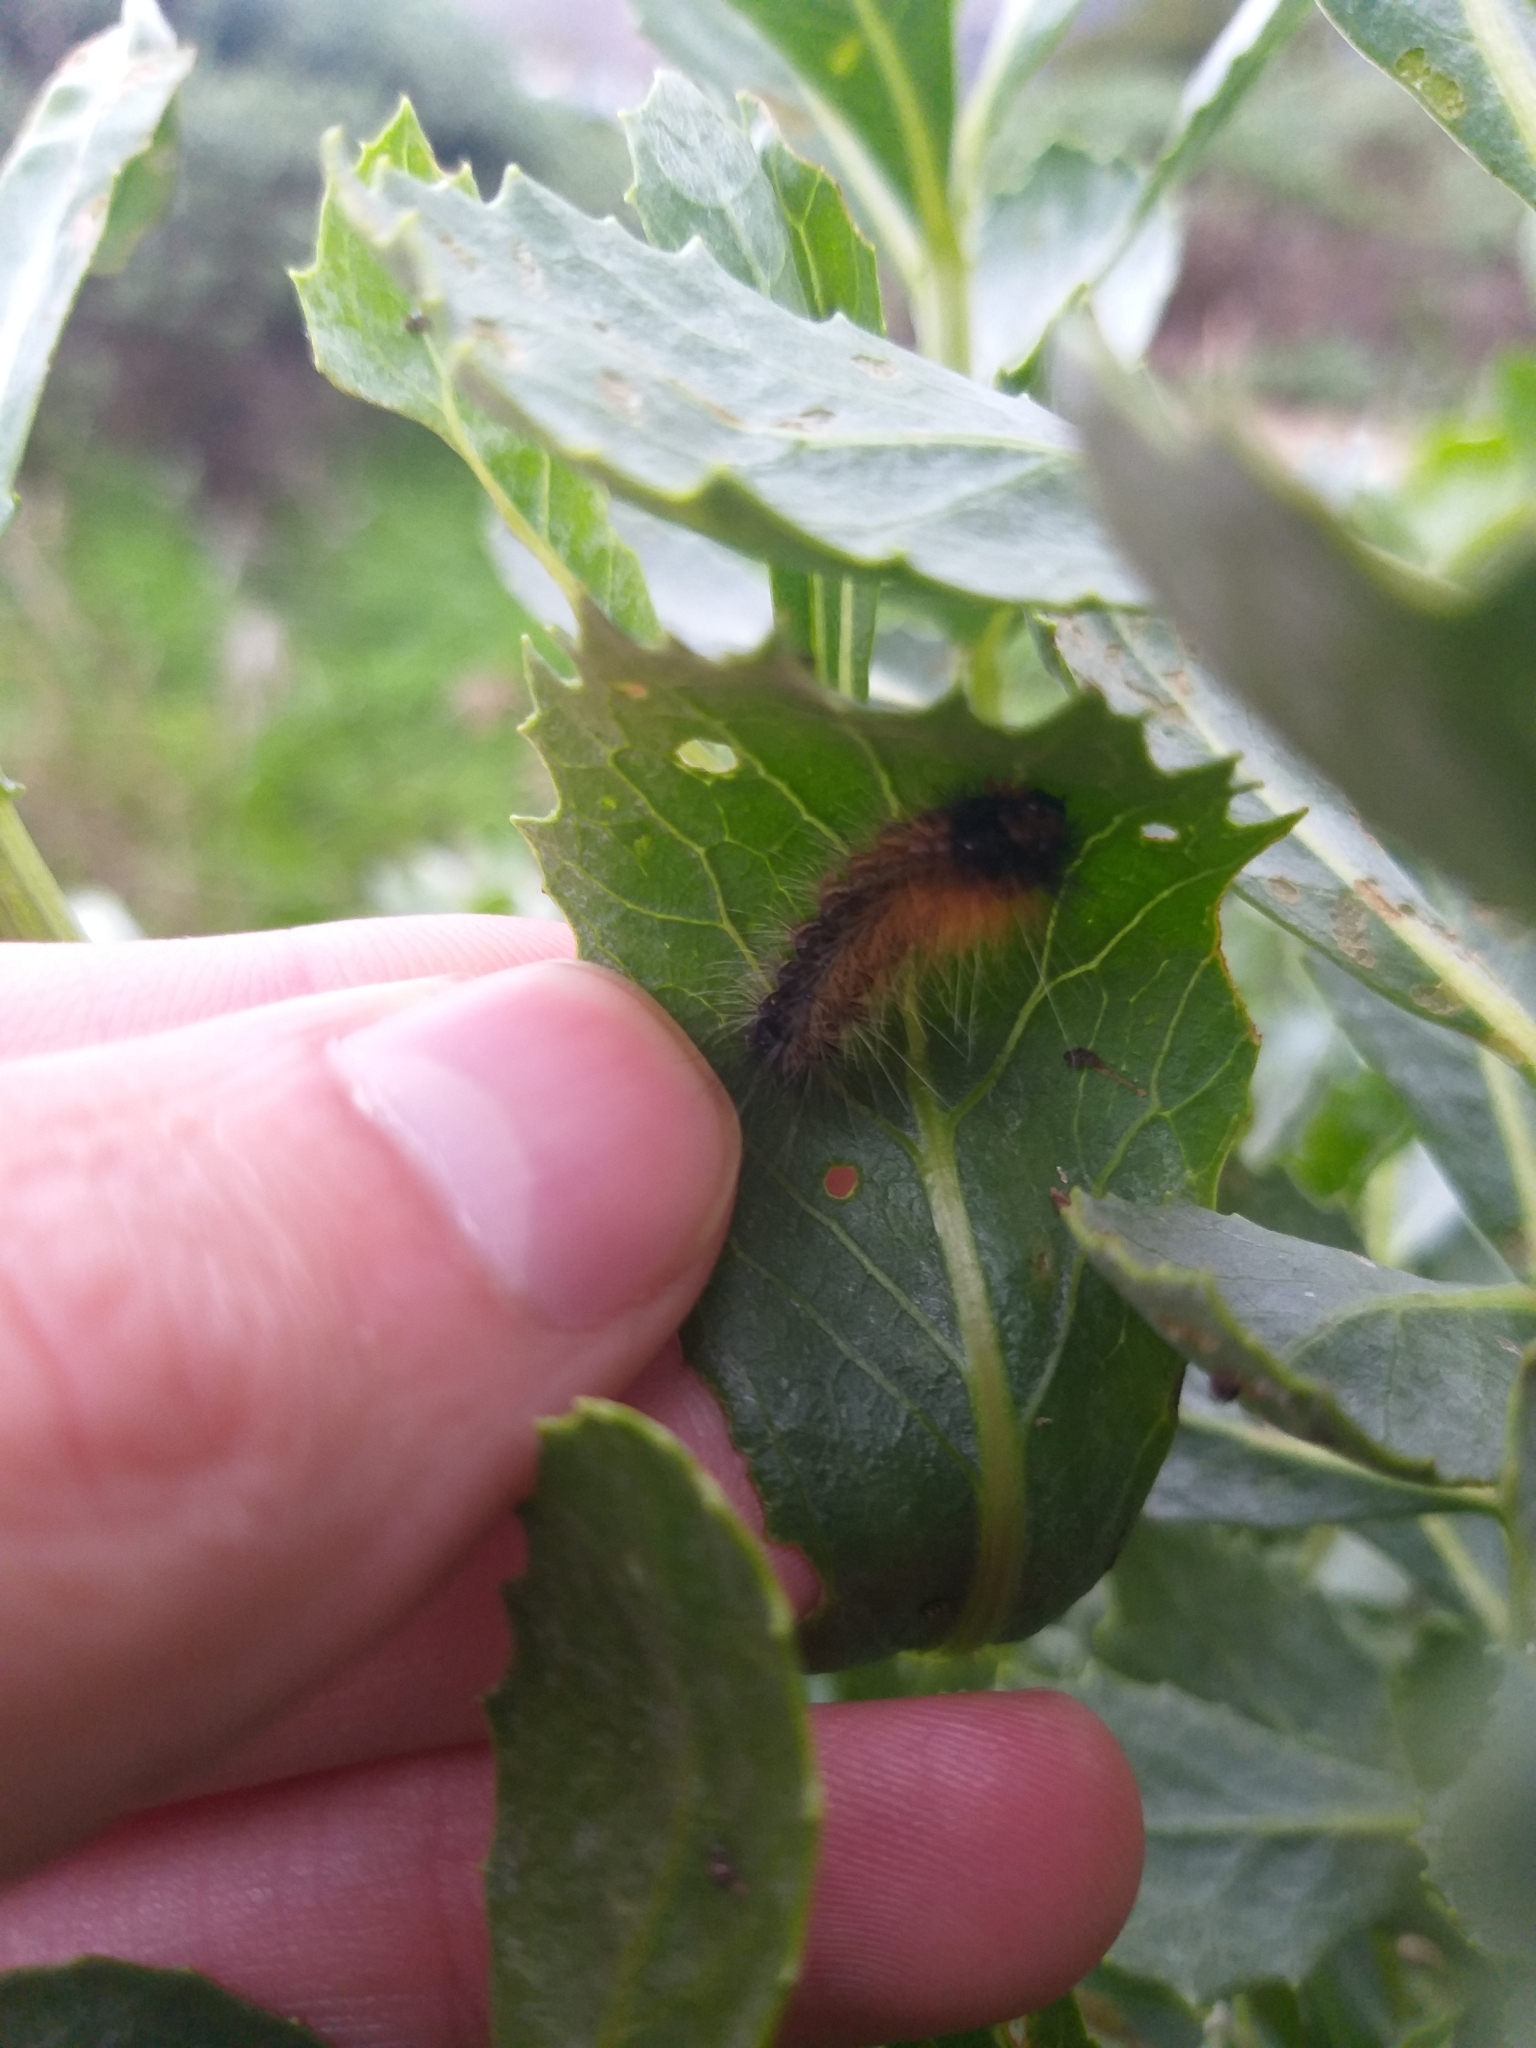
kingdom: Animalia
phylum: Arthropoda
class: Insecta
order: Lepidoptera
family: Erebidae
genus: Rhodogastria
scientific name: Rhodogastria amasis
